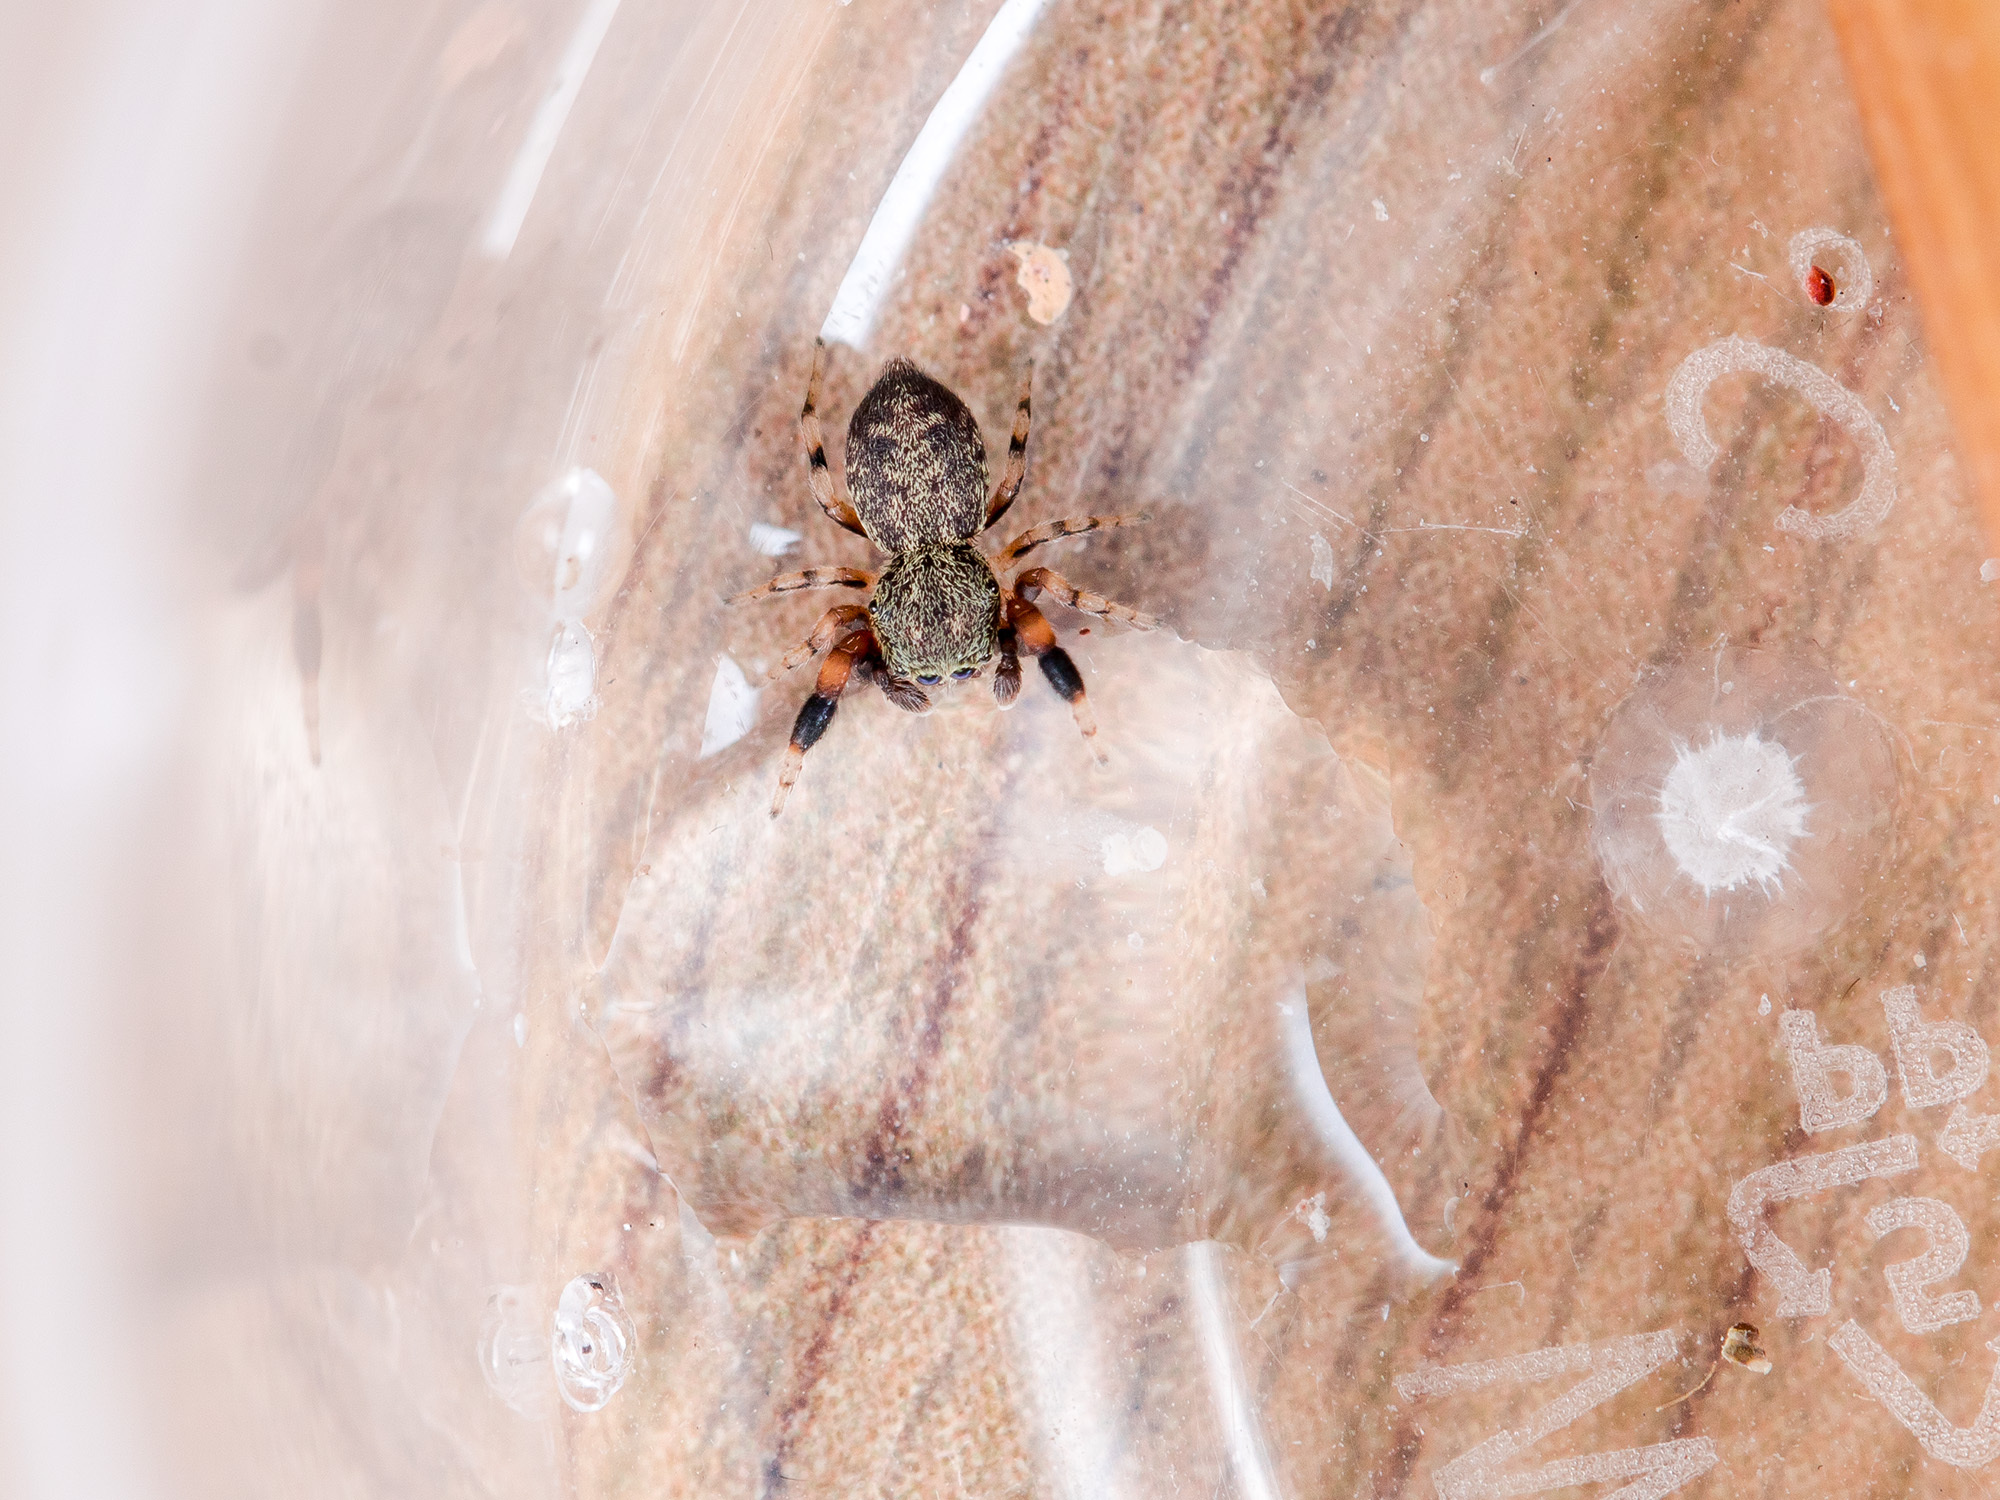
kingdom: Animalia
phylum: Arthropoda
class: Arachnida
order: Araneae
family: Salticidae
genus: Ballus
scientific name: Ballus chalybeius
